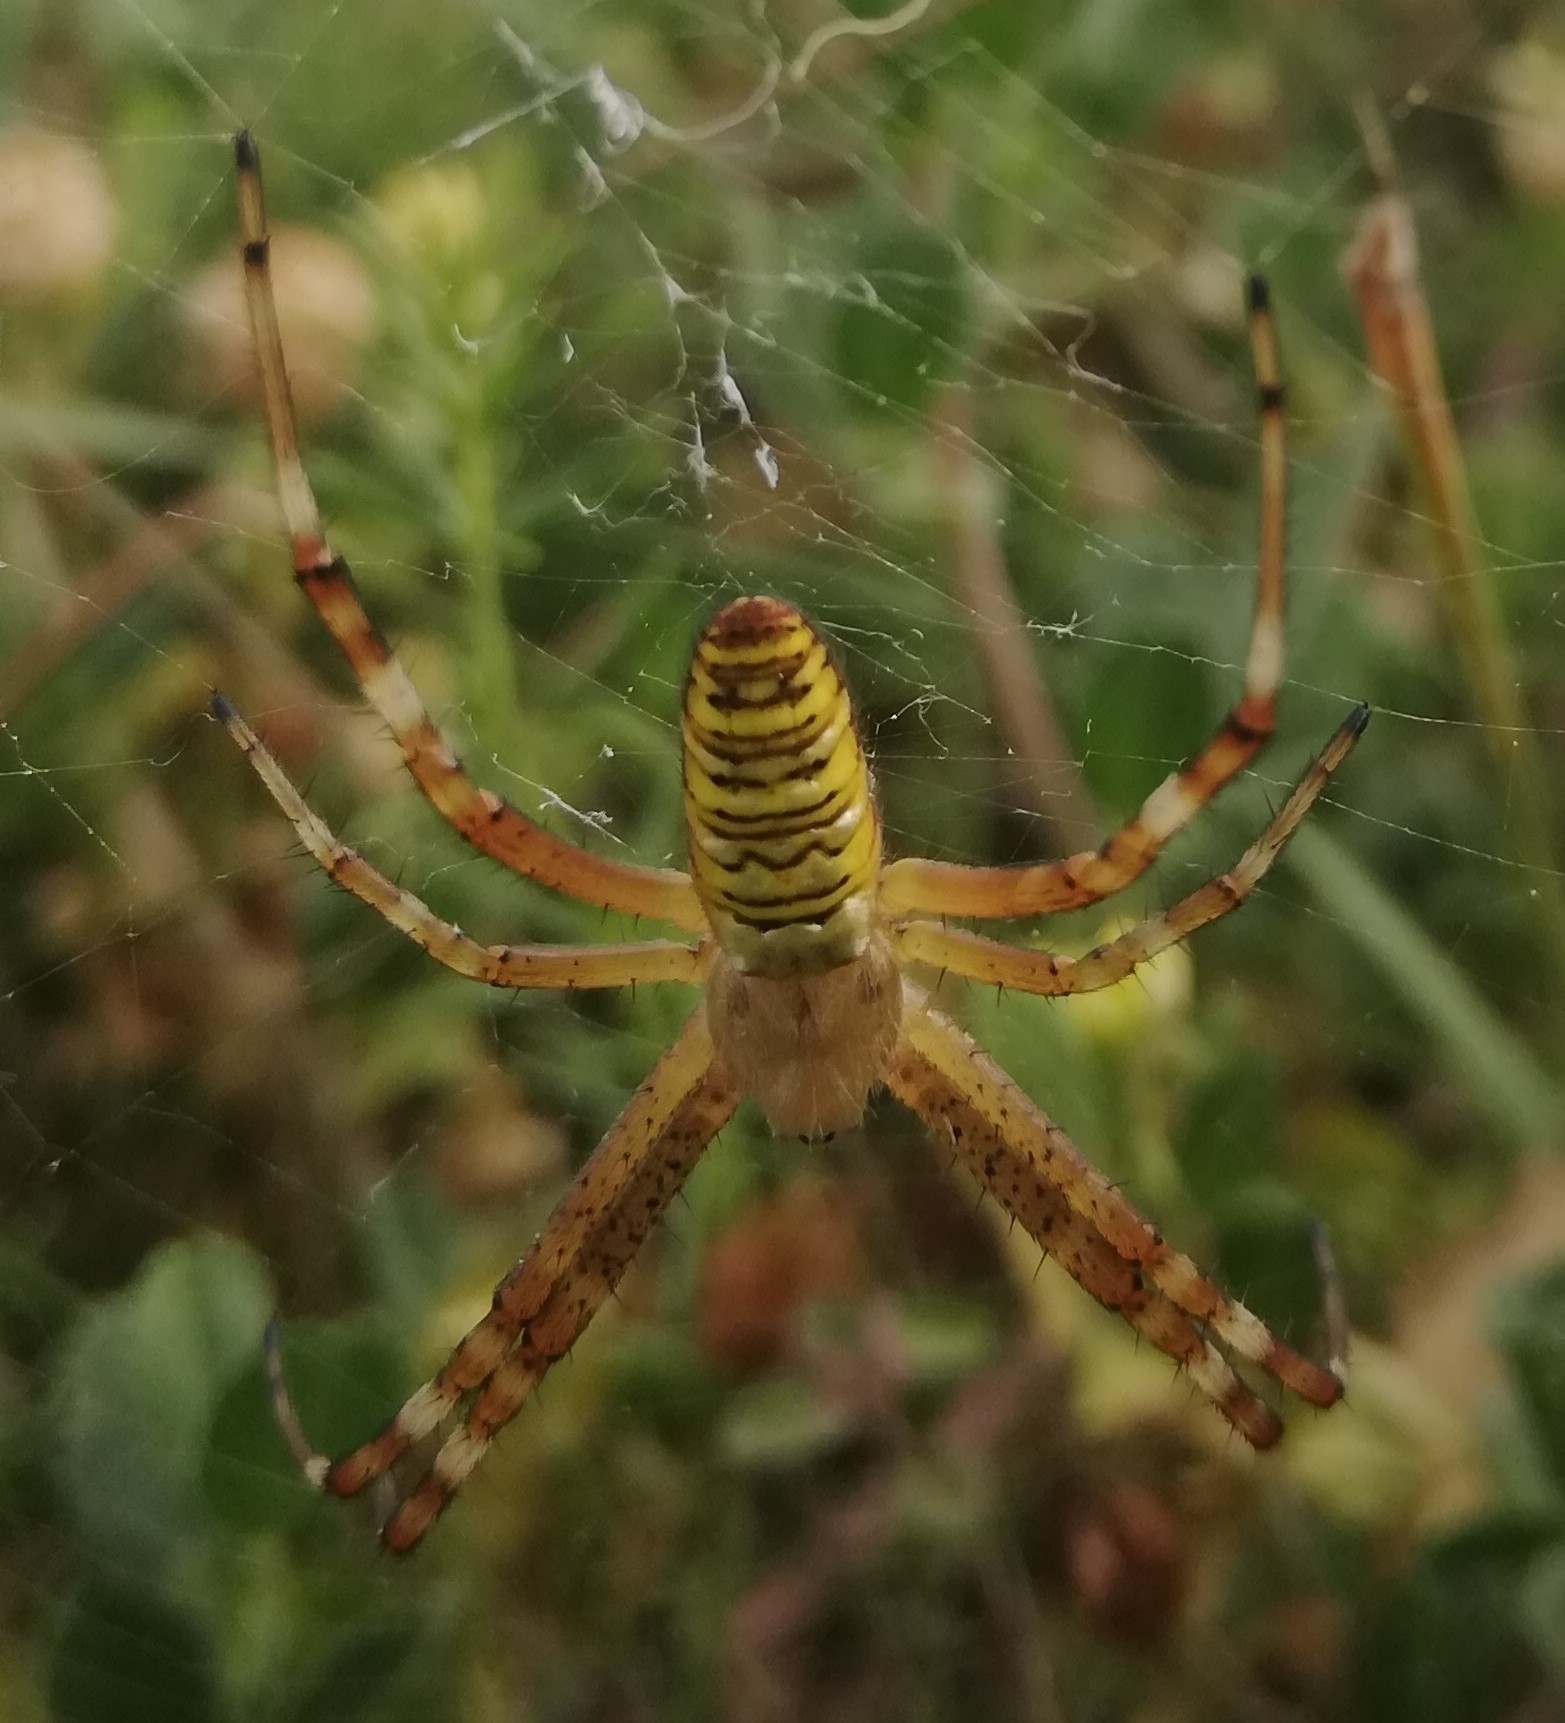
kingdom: Animalia
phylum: Arthropoda
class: Arachnida
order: Araneae
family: Araneidae
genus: Argiope
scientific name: Argiope bruennichi
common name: Wasp spider
